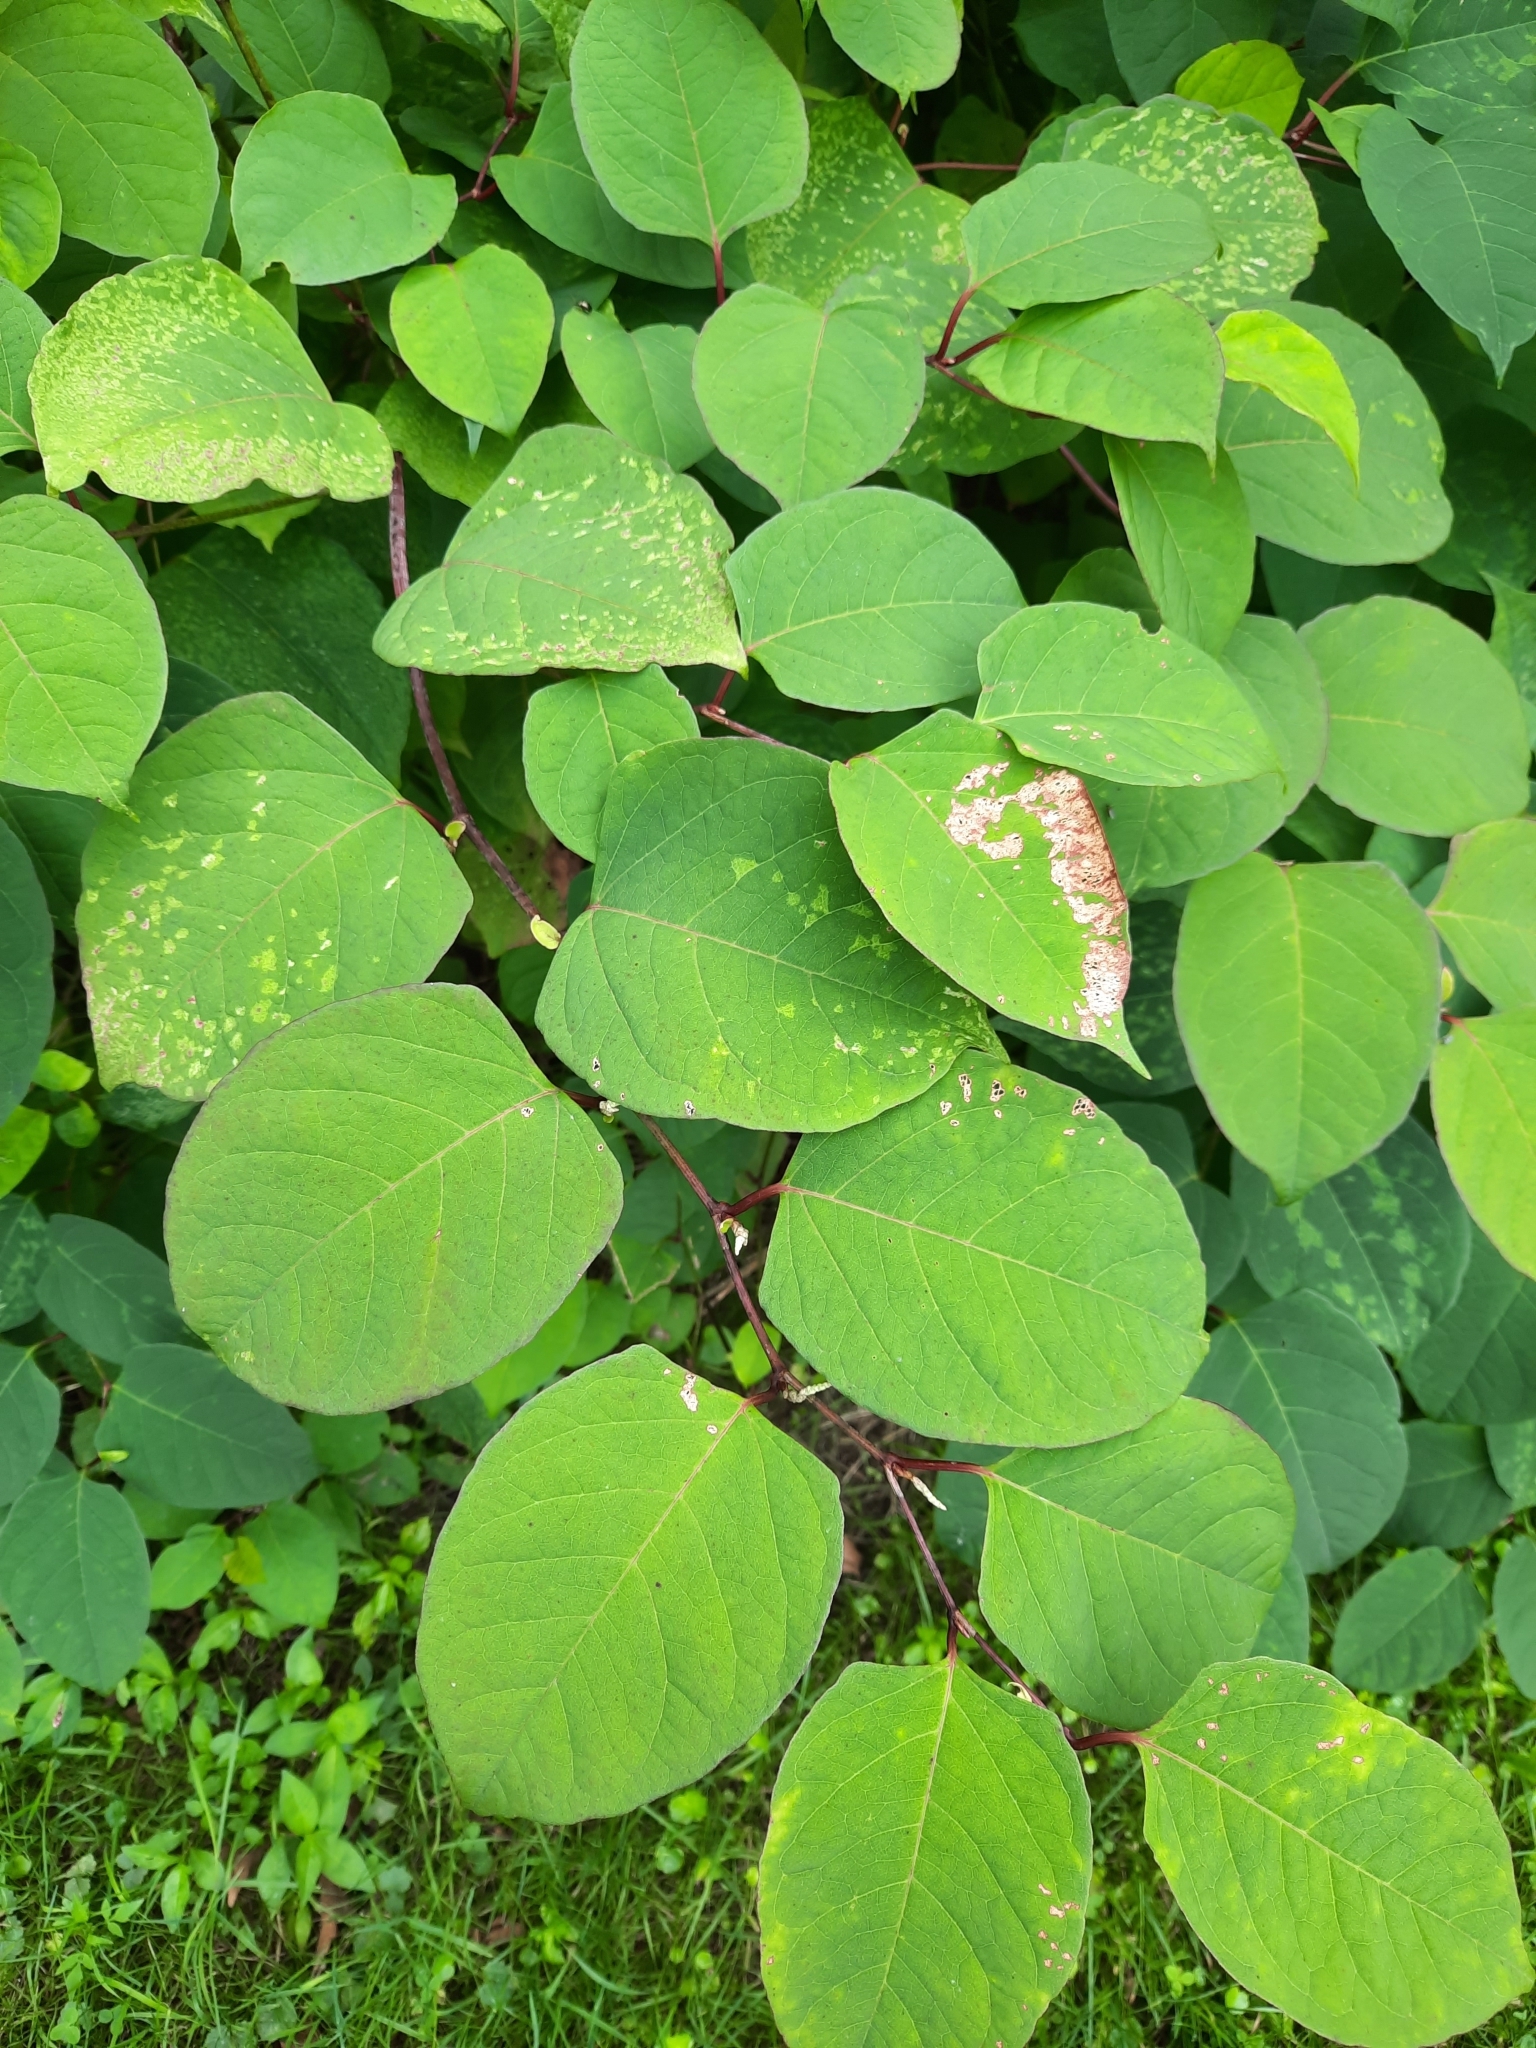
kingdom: Plantae
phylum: Tracheophyta
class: Magnoliopsida
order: Caryophyllales
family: Polygonaceae
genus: Reynoutria
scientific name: Reynoutria japonica
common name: Japanese knotweed
